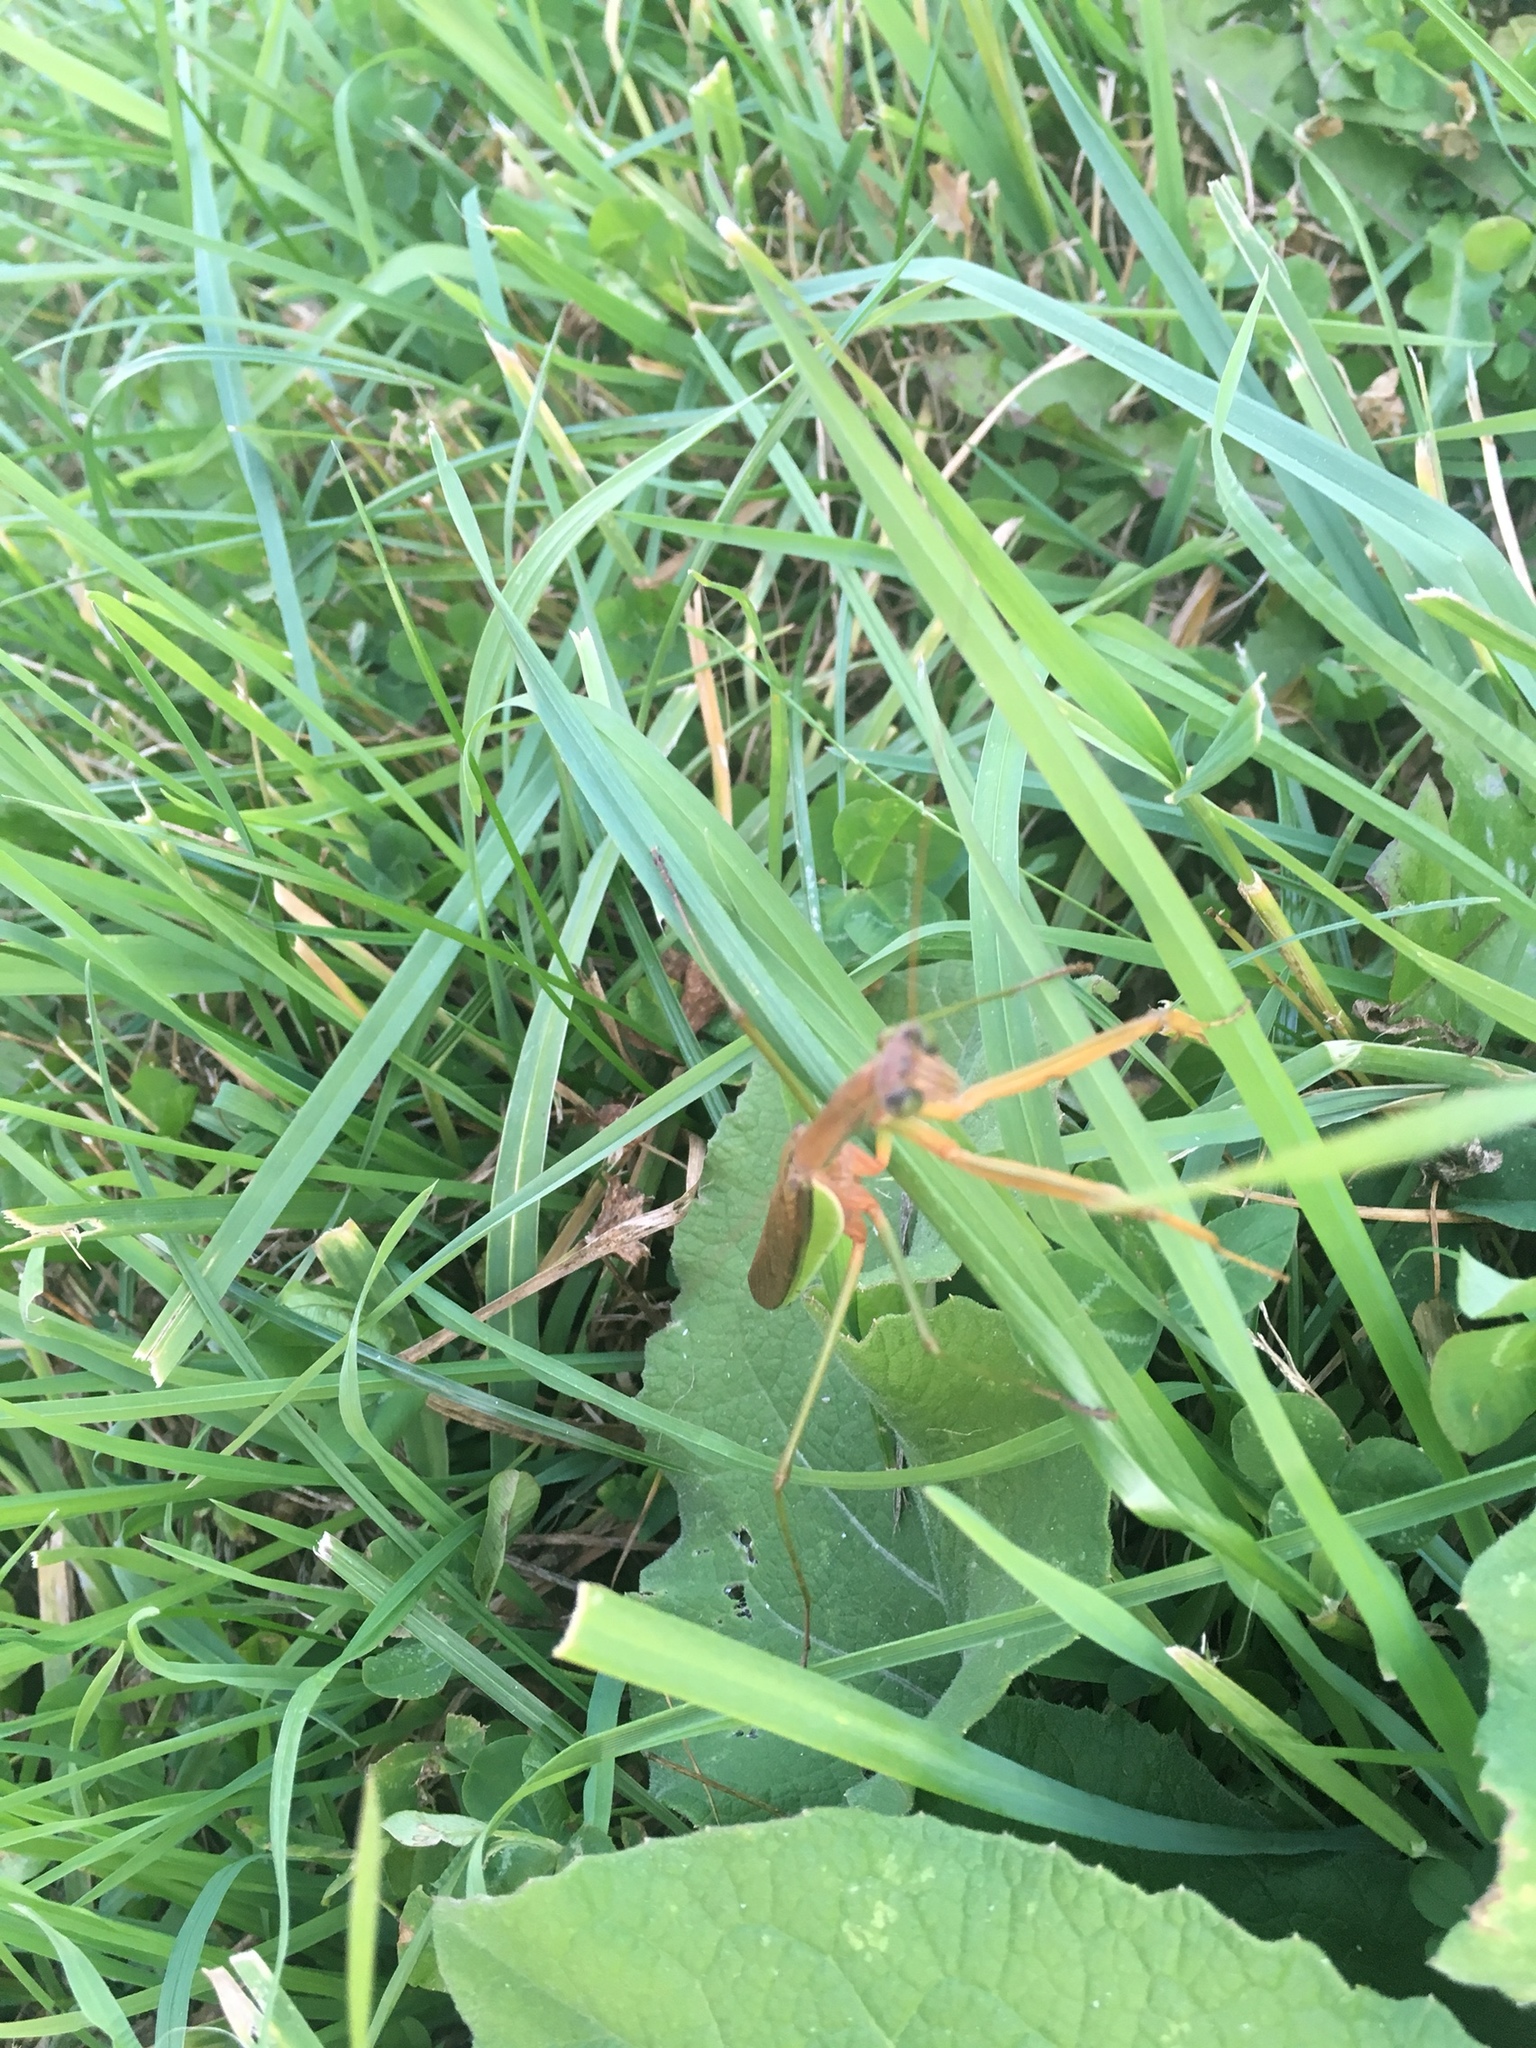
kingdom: Animalia
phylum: Arthropoda
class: Insecta
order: Mantodea
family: Mantidae
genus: Tenodera
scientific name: Tenodera sinensis
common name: Chinese mantis
